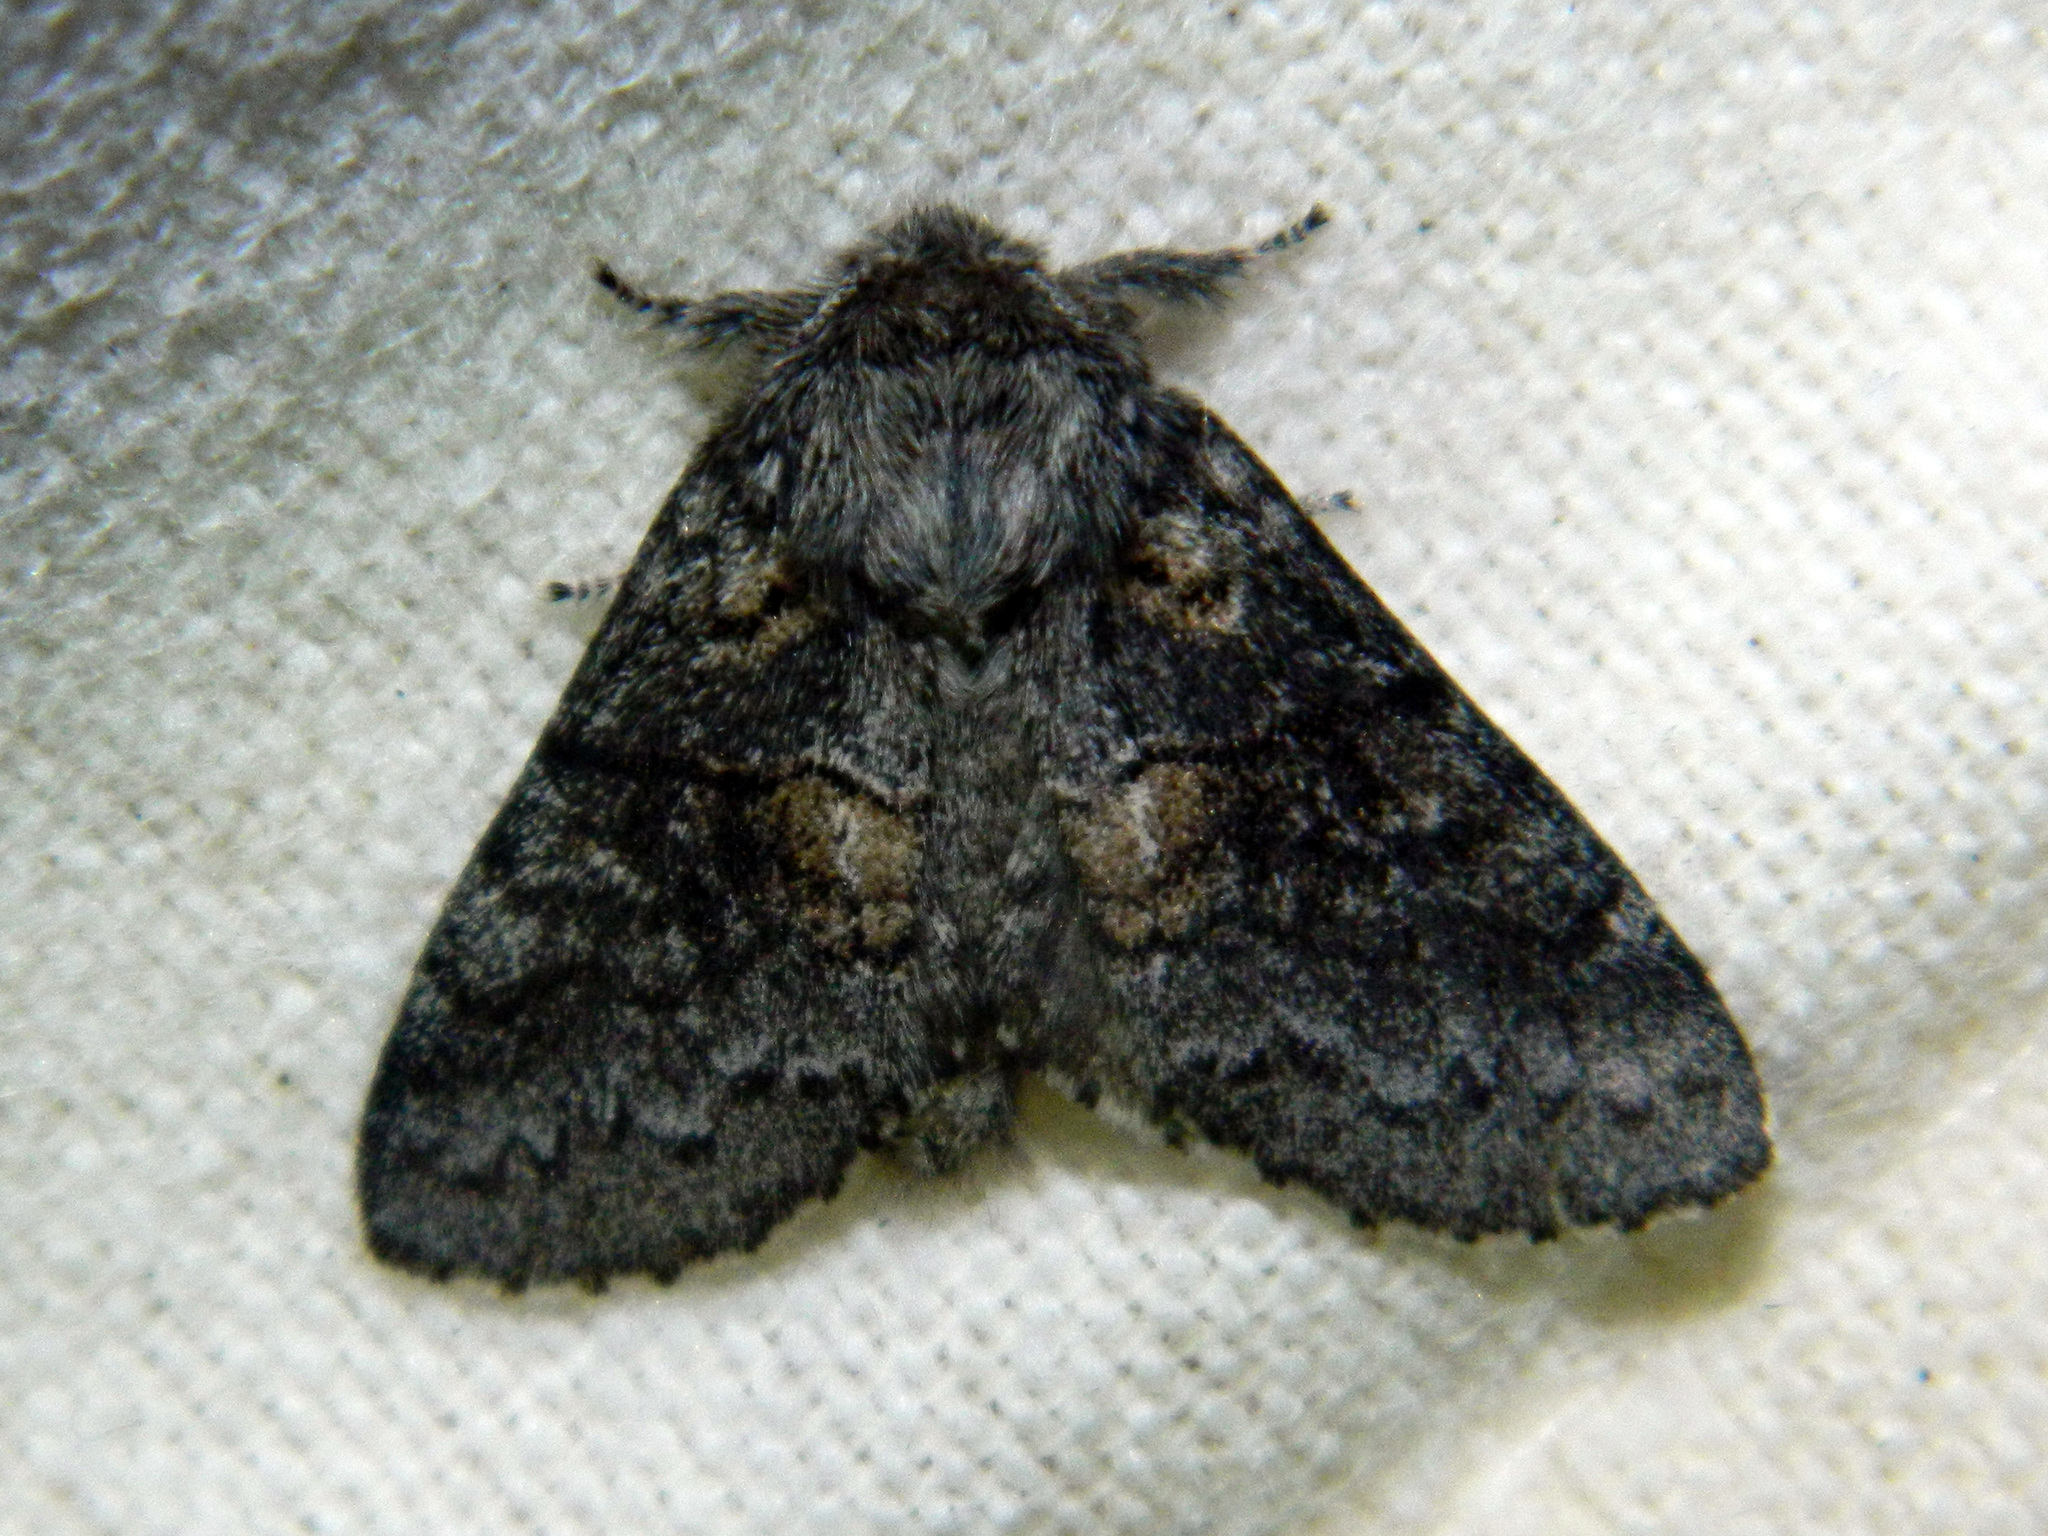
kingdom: Animalia
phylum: Arthropoda
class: Insecta
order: Lepidoptera
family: Notodontidae
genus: Gluphisia
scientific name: Gluphisia septentrionis
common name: Common gluphisia
